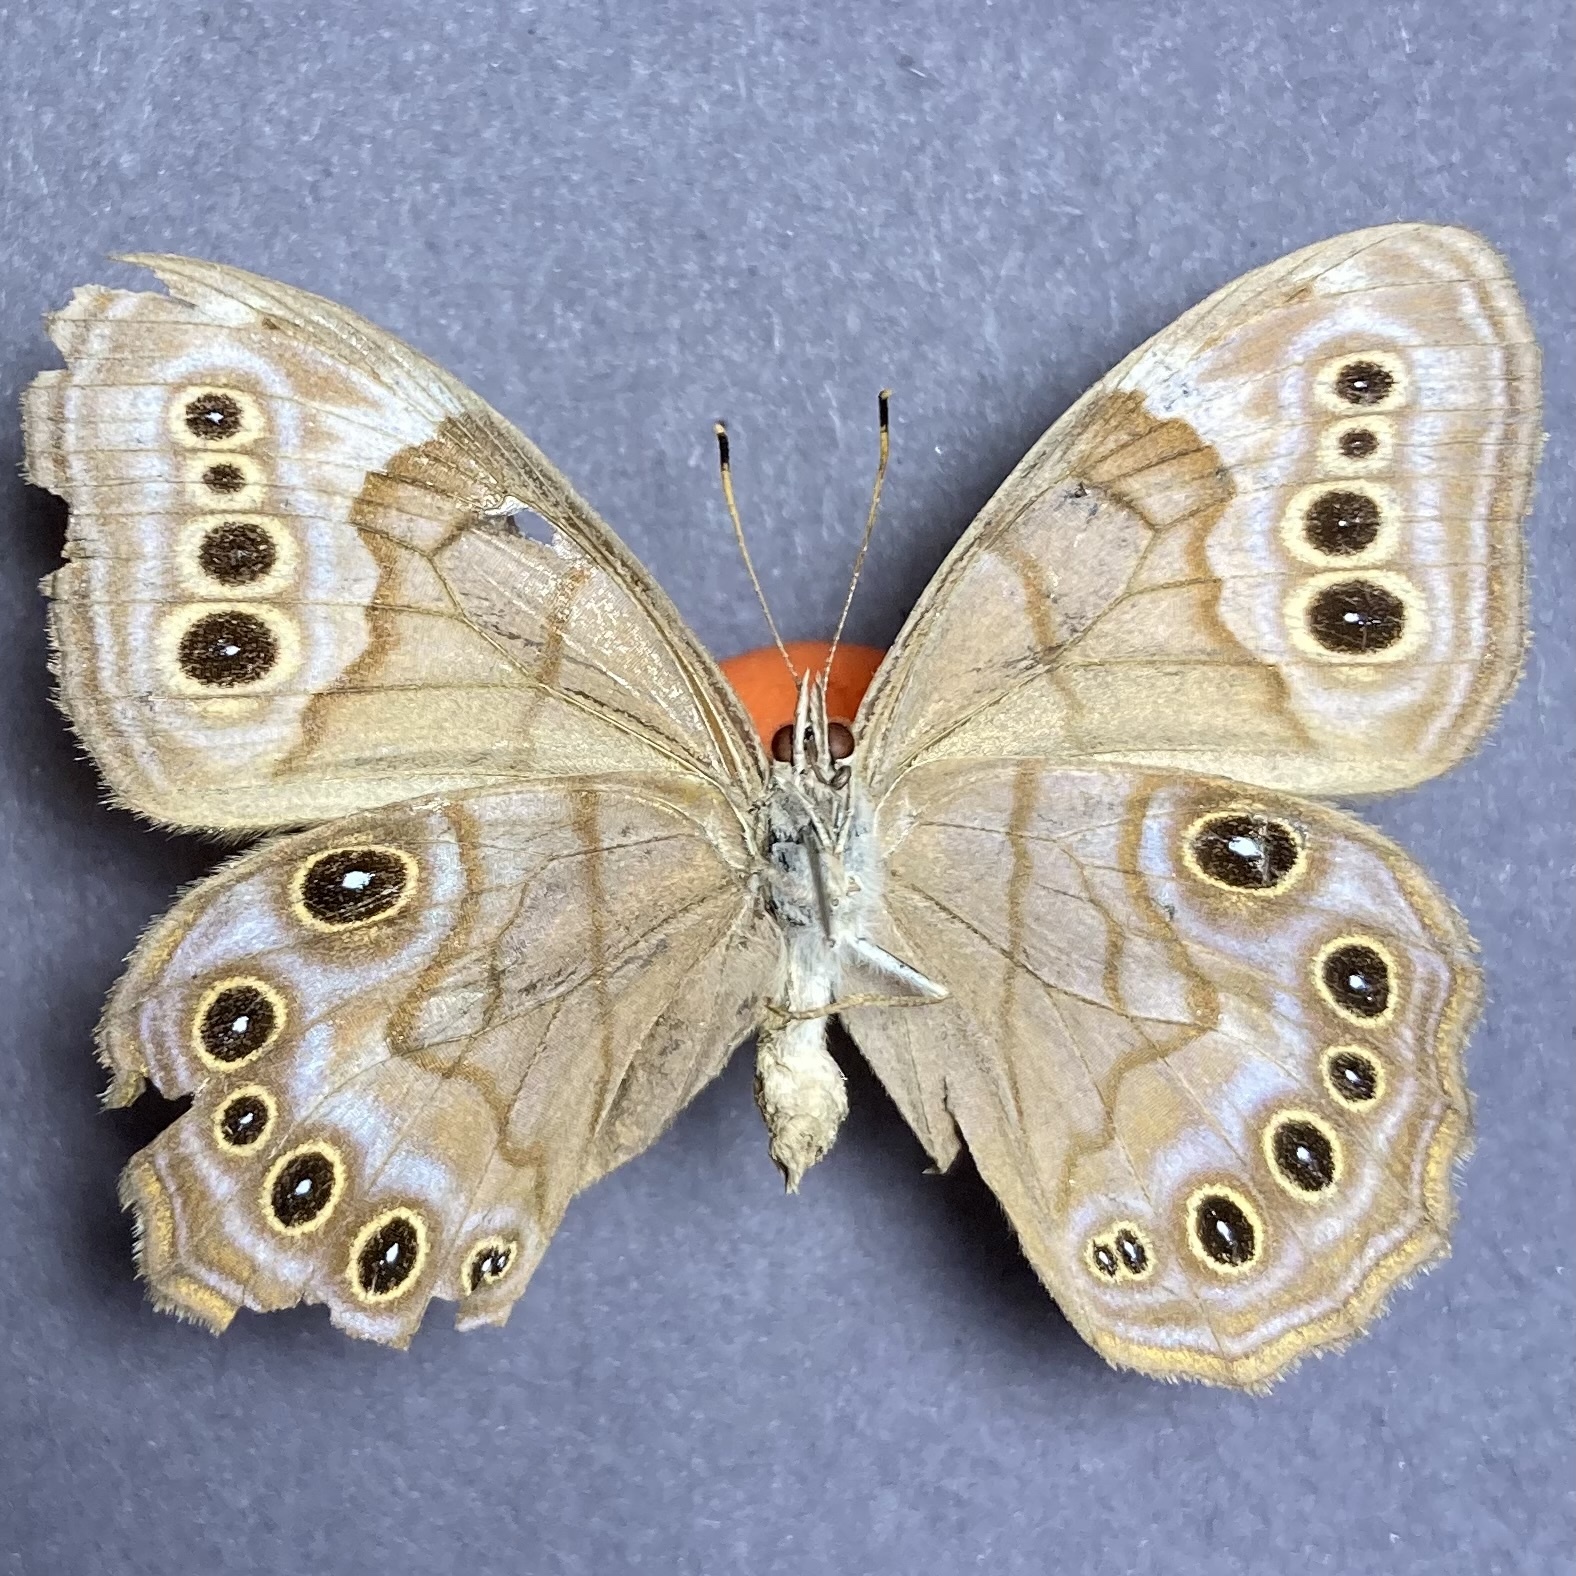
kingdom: Animalia
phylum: Arthropoda
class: Insecta
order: Lepidoptera
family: Nymphalidae
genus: Lethe
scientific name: Lethe anthedon
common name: Northern pearly-eye
